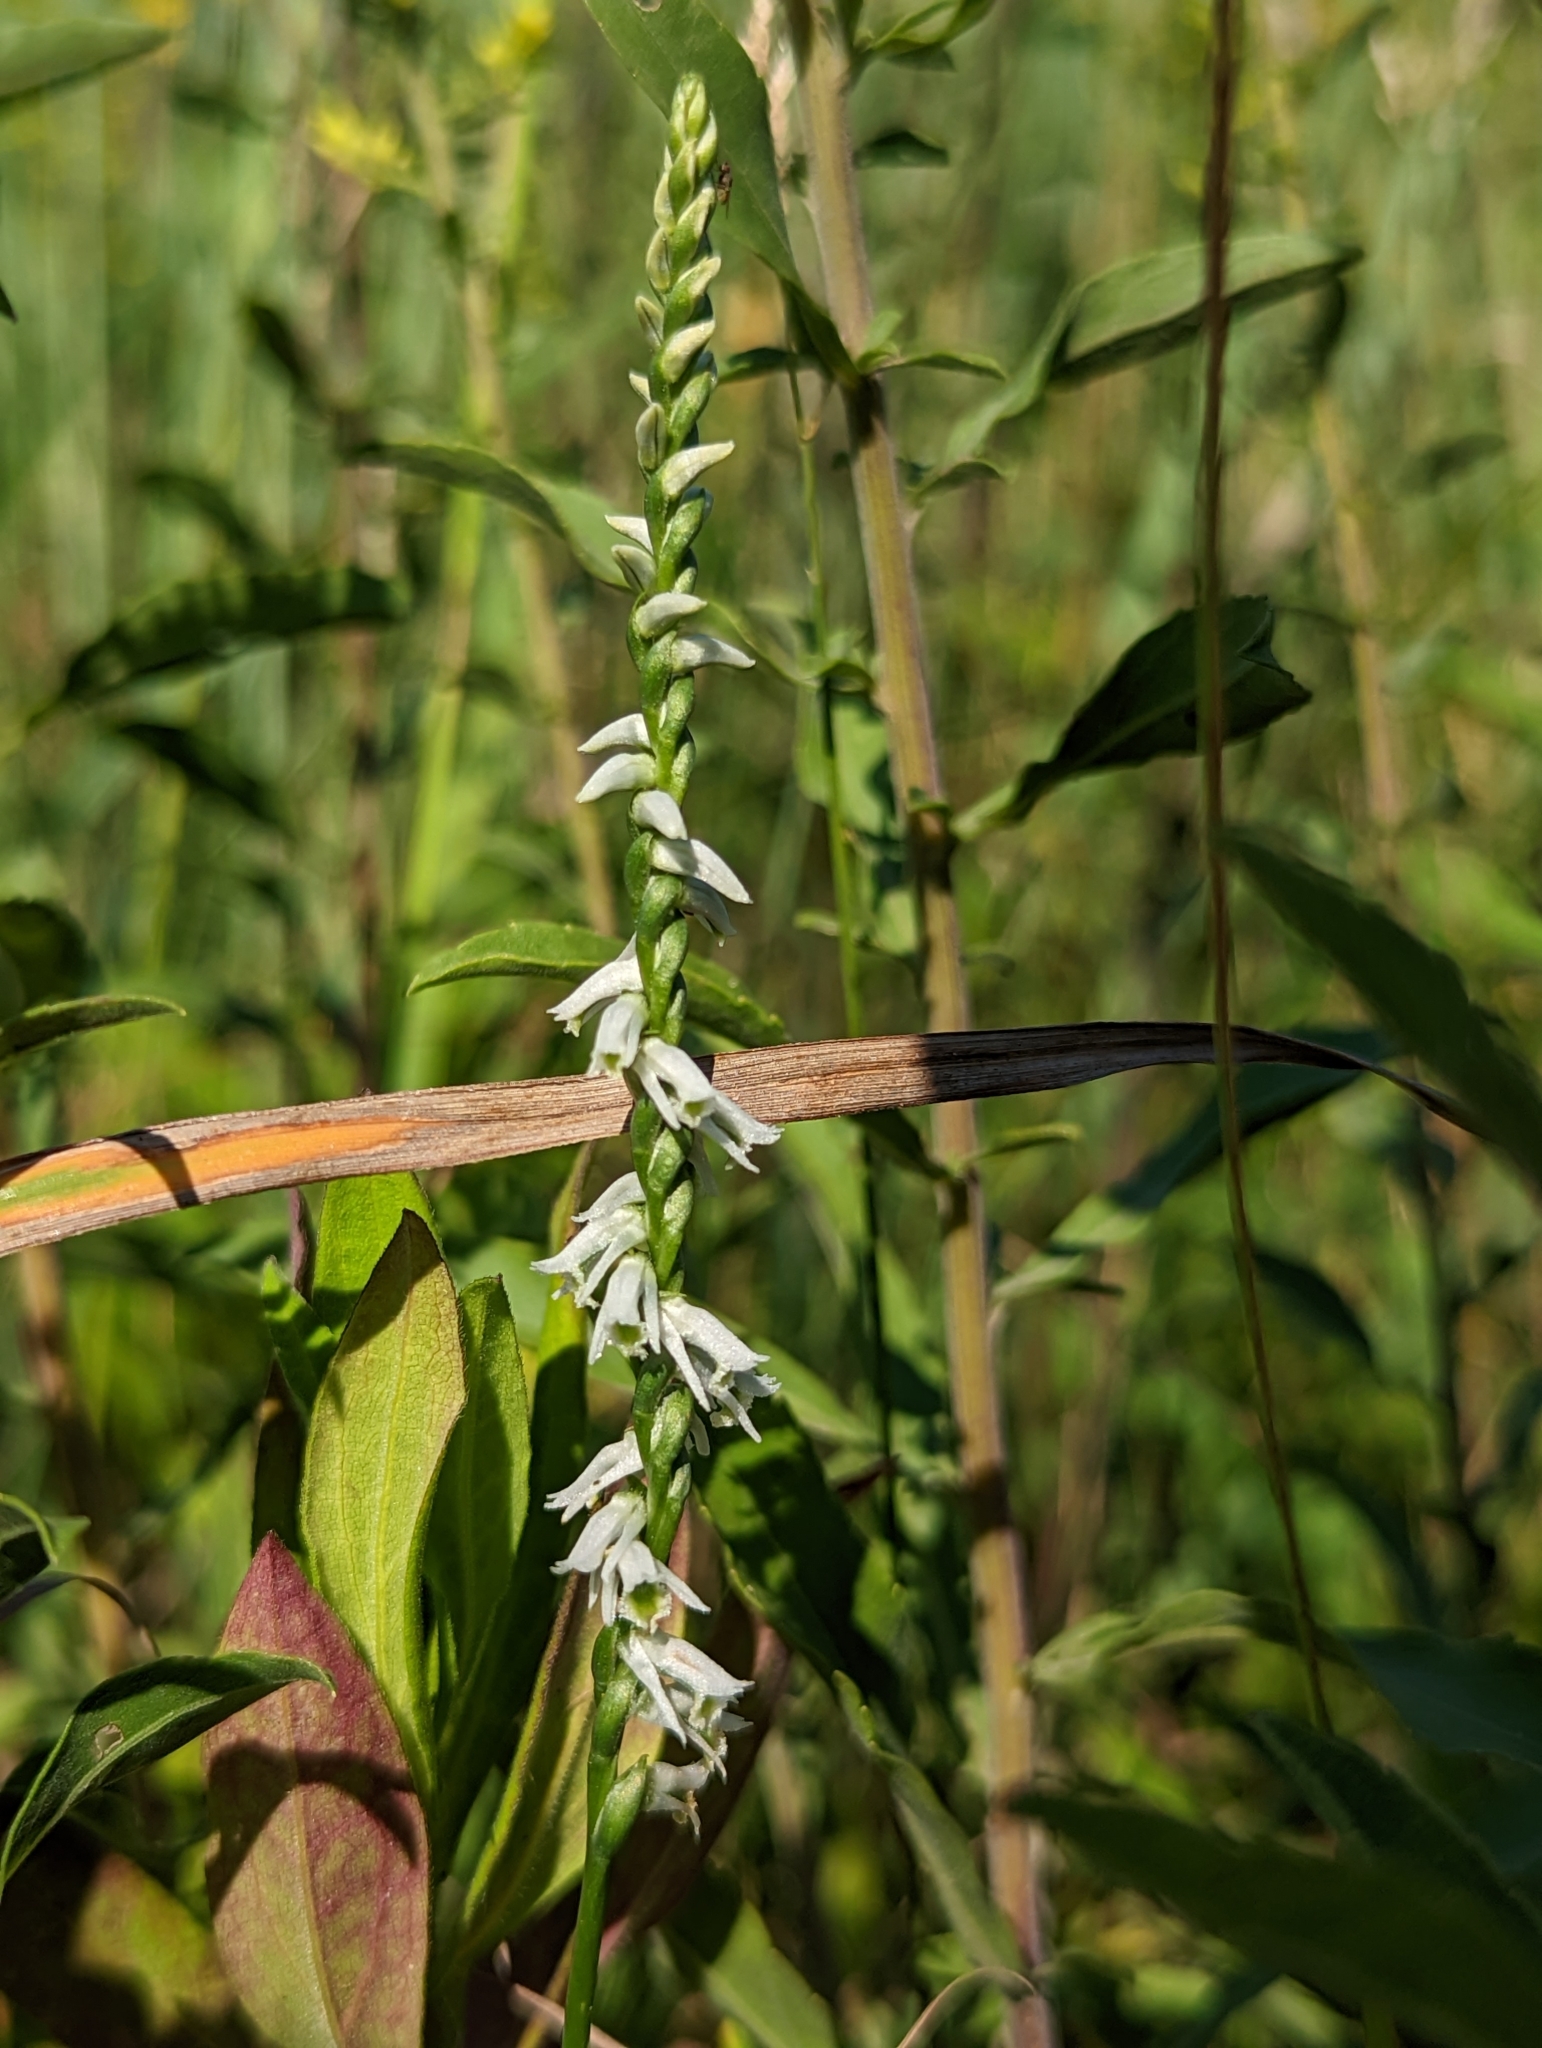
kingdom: Plantae
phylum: Tracheophyta
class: Liliopsida
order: Asparagales
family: Orchidaceae
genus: Spiranthes
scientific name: Spiranthes lacera
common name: Northern slender ladies'-tresses
